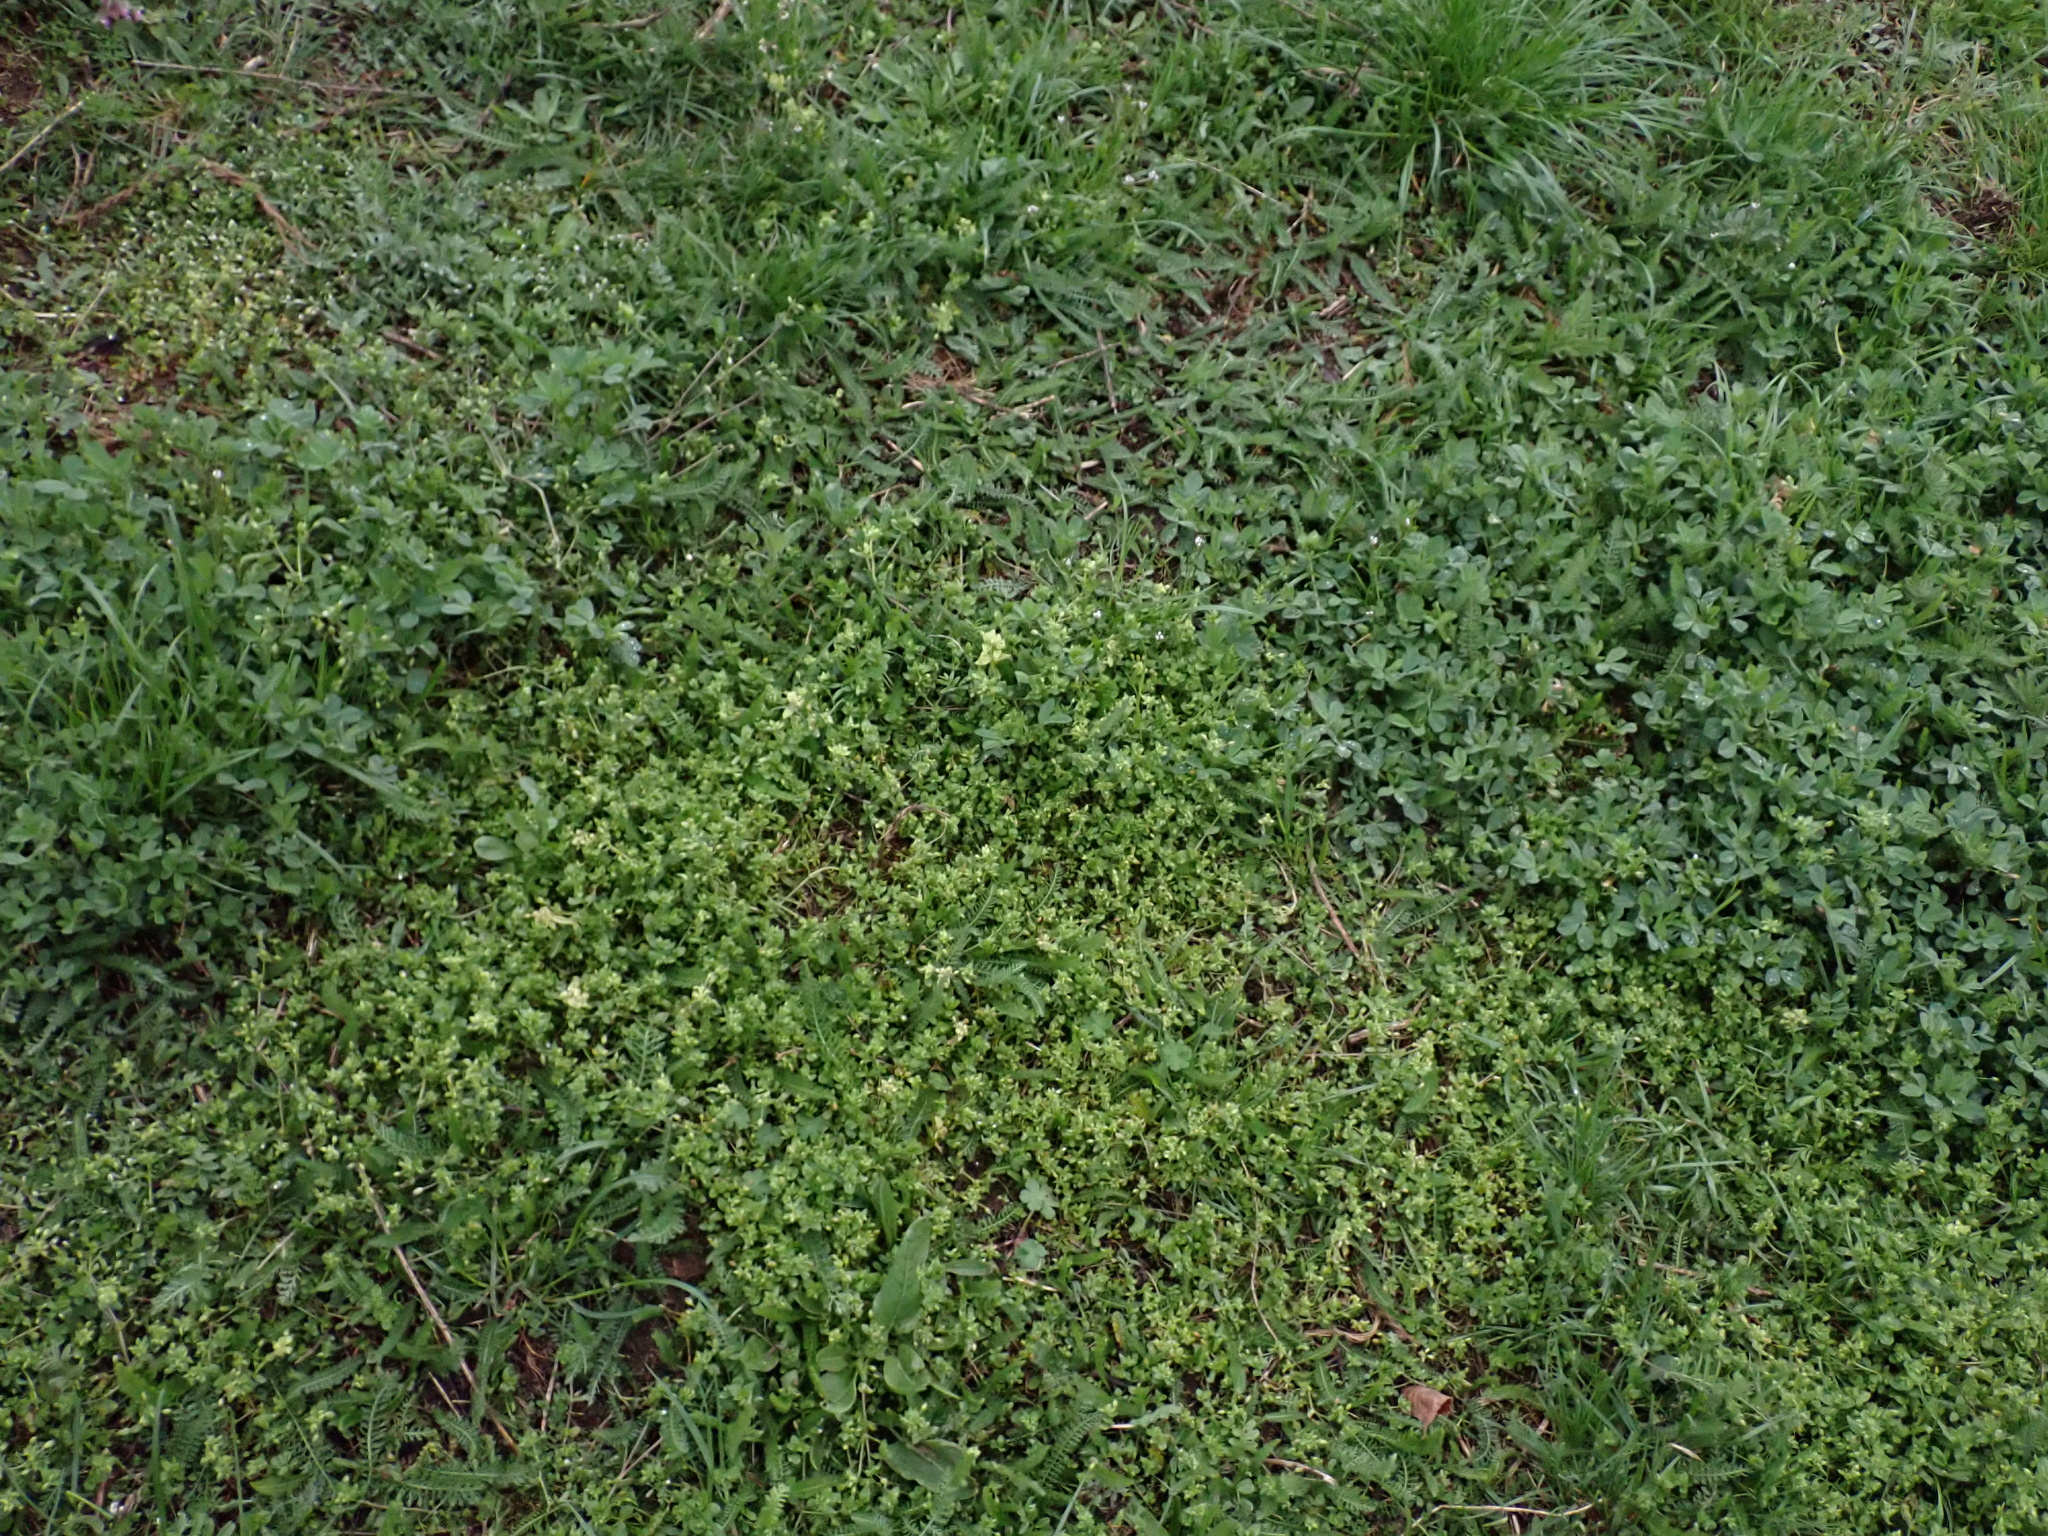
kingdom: Chromista
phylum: Oomycota
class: Peronosporea
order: Peronosporales
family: Peronosporaceae
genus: Peronospora
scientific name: Peronospora alsinearum
